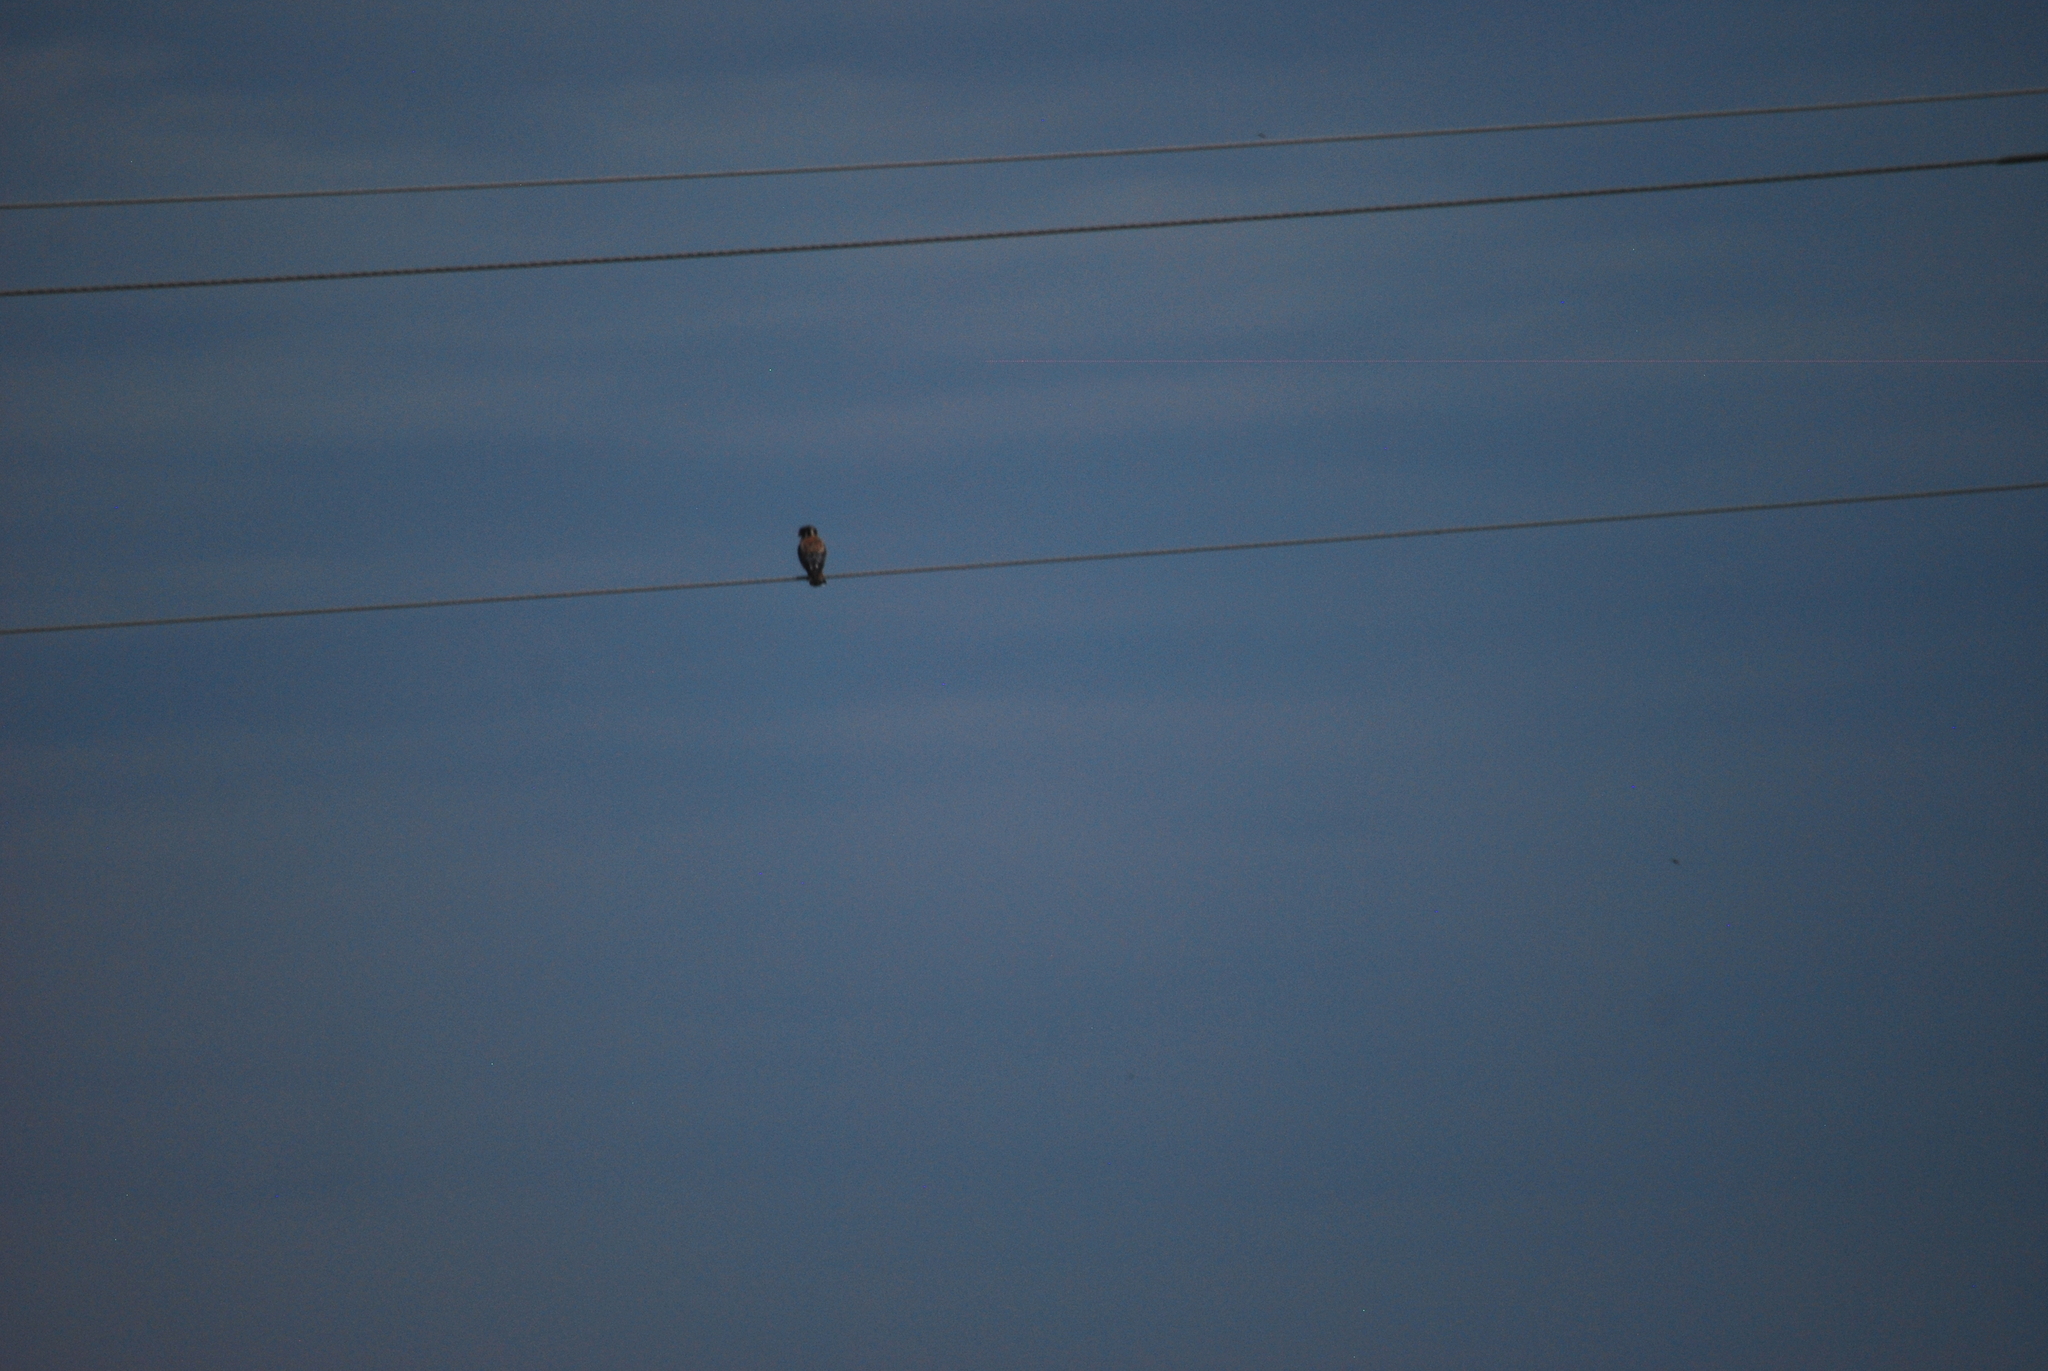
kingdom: Animalia
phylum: Chordata
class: Aves
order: Falconiformes
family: Falconidae
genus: Falco
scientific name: Falco sparverius
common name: American kestrel
